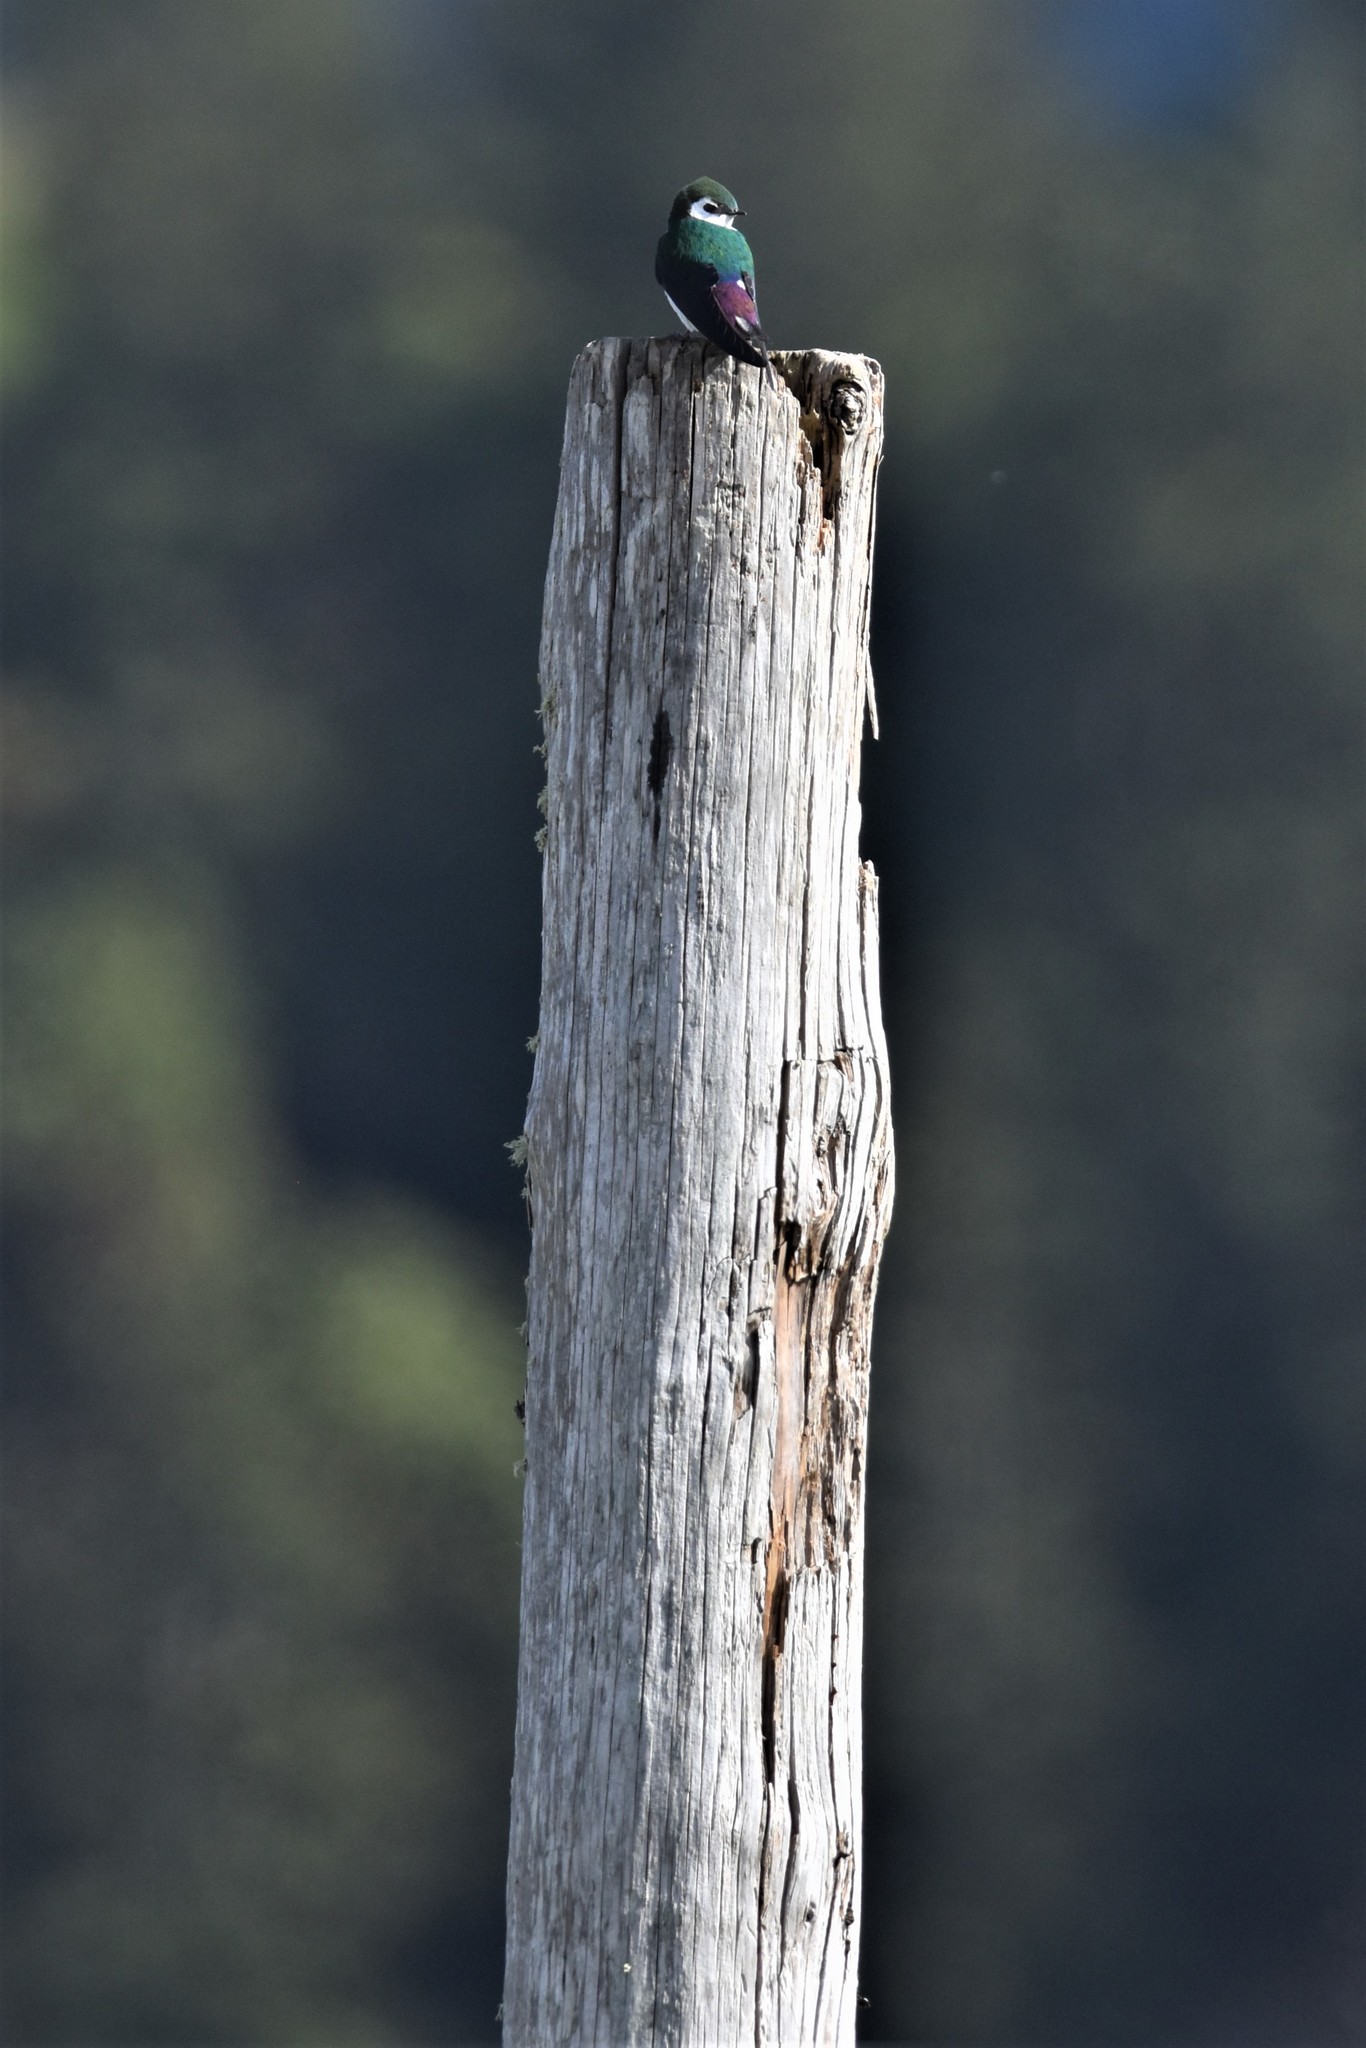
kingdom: Animalia
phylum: Chordata
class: Aves
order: Passeriformes
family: Hirundinidae
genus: Tachycineta
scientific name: Tachycineta thalassina
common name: Violet-green swallow
